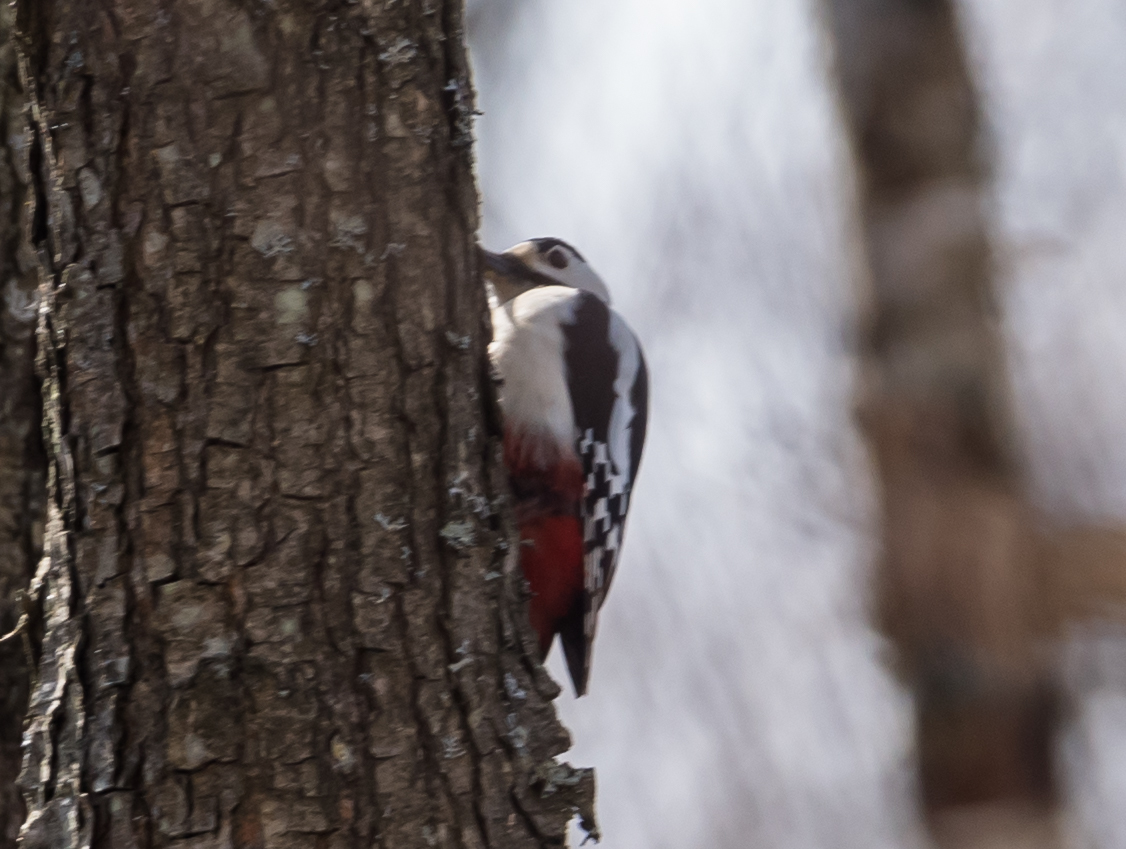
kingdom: Animalia
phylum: Chordata
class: Aves
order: Piciformes
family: Picidae
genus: Dendrocopos
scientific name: Dendrocopos major
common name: Great spotted woodpecker
